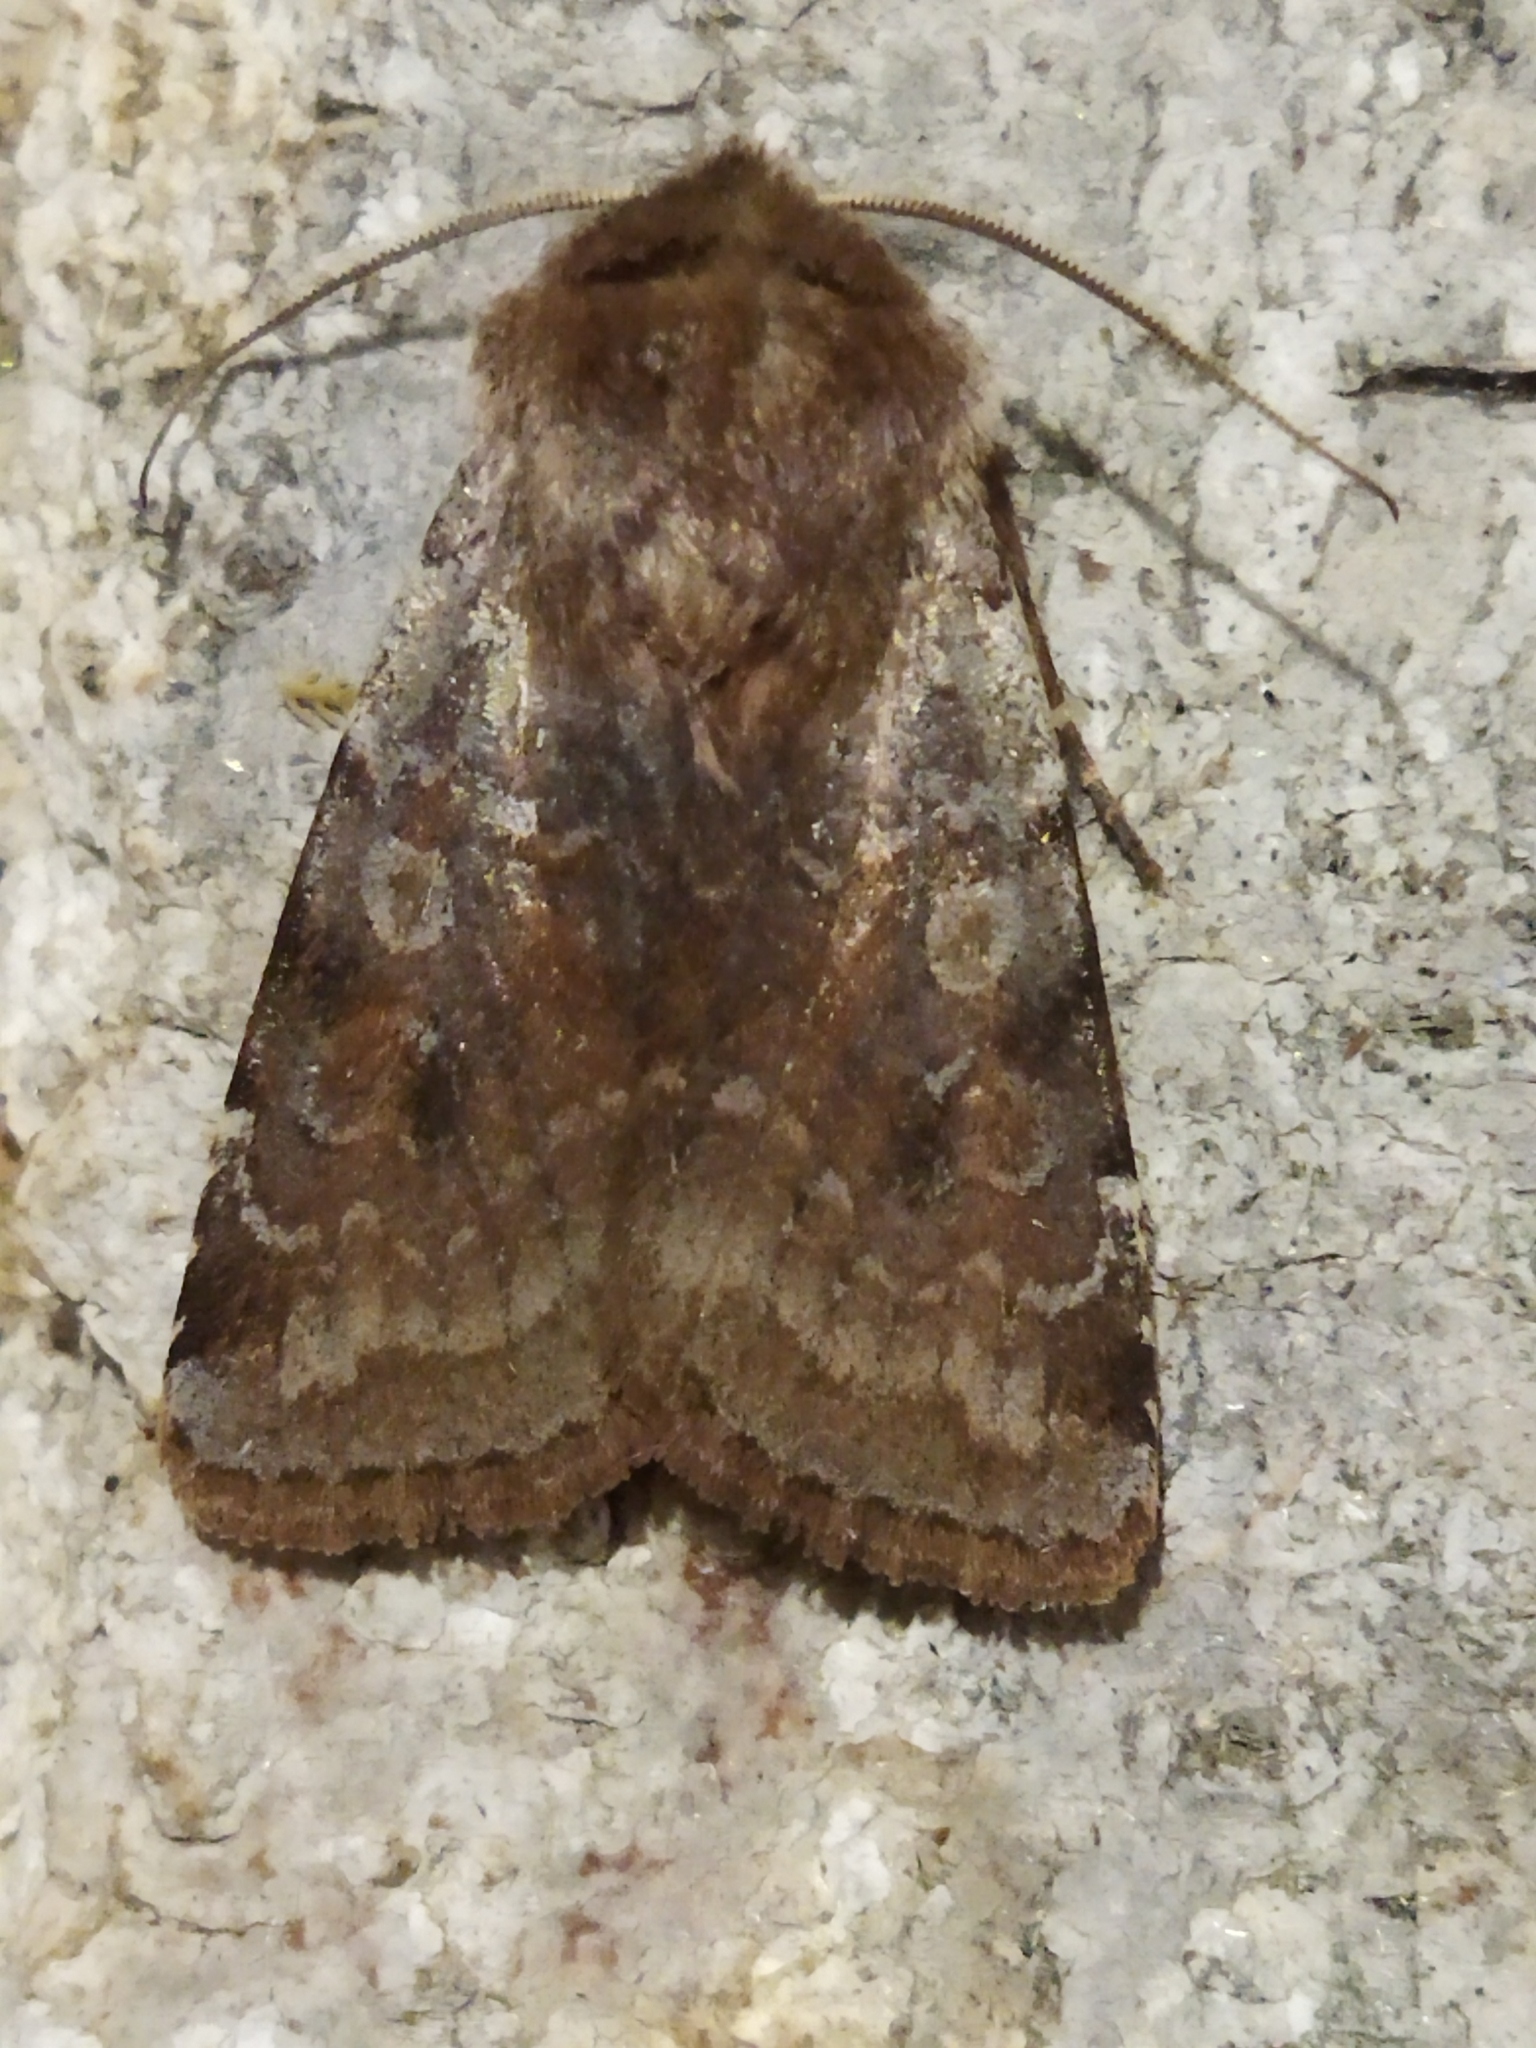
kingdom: Animalia
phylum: Arthropoda
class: Insecta
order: Lepidoptera
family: Noctuidae
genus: Cerastis
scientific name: Cerastis rubricosa
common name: Red chestnut
